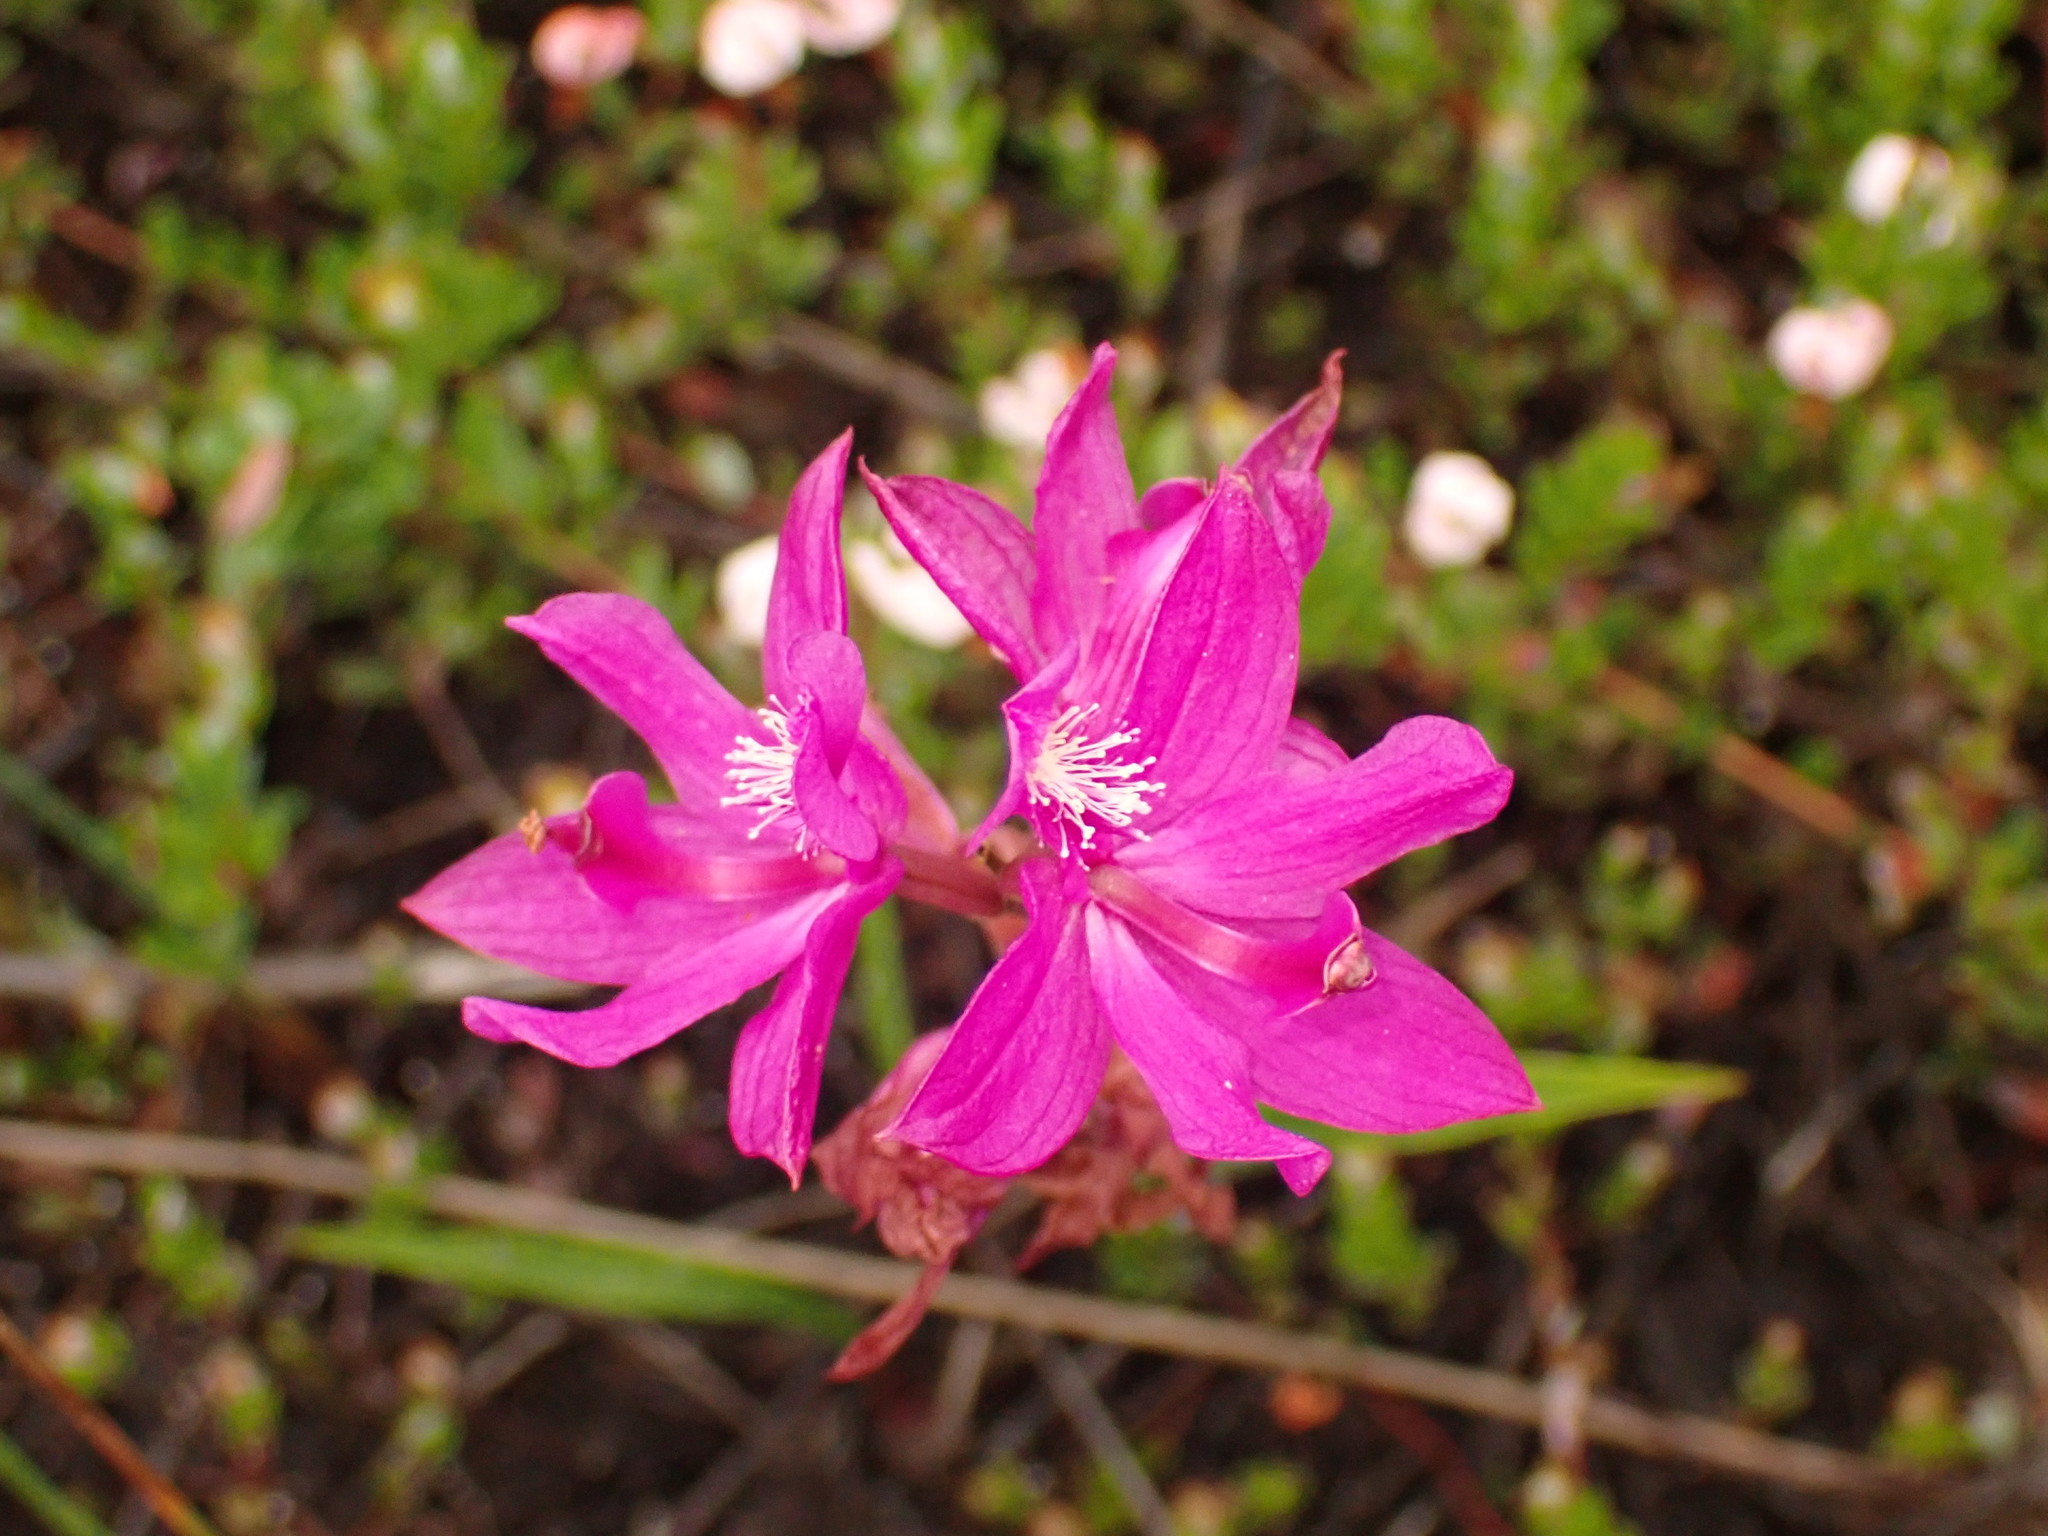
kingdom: Plantae
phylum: Tracheophyta
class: Liliopsida
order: Asparagales
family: Orchidaceae
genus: Calopogon
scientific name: Calopogon tuberosus
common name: Grass-pink
